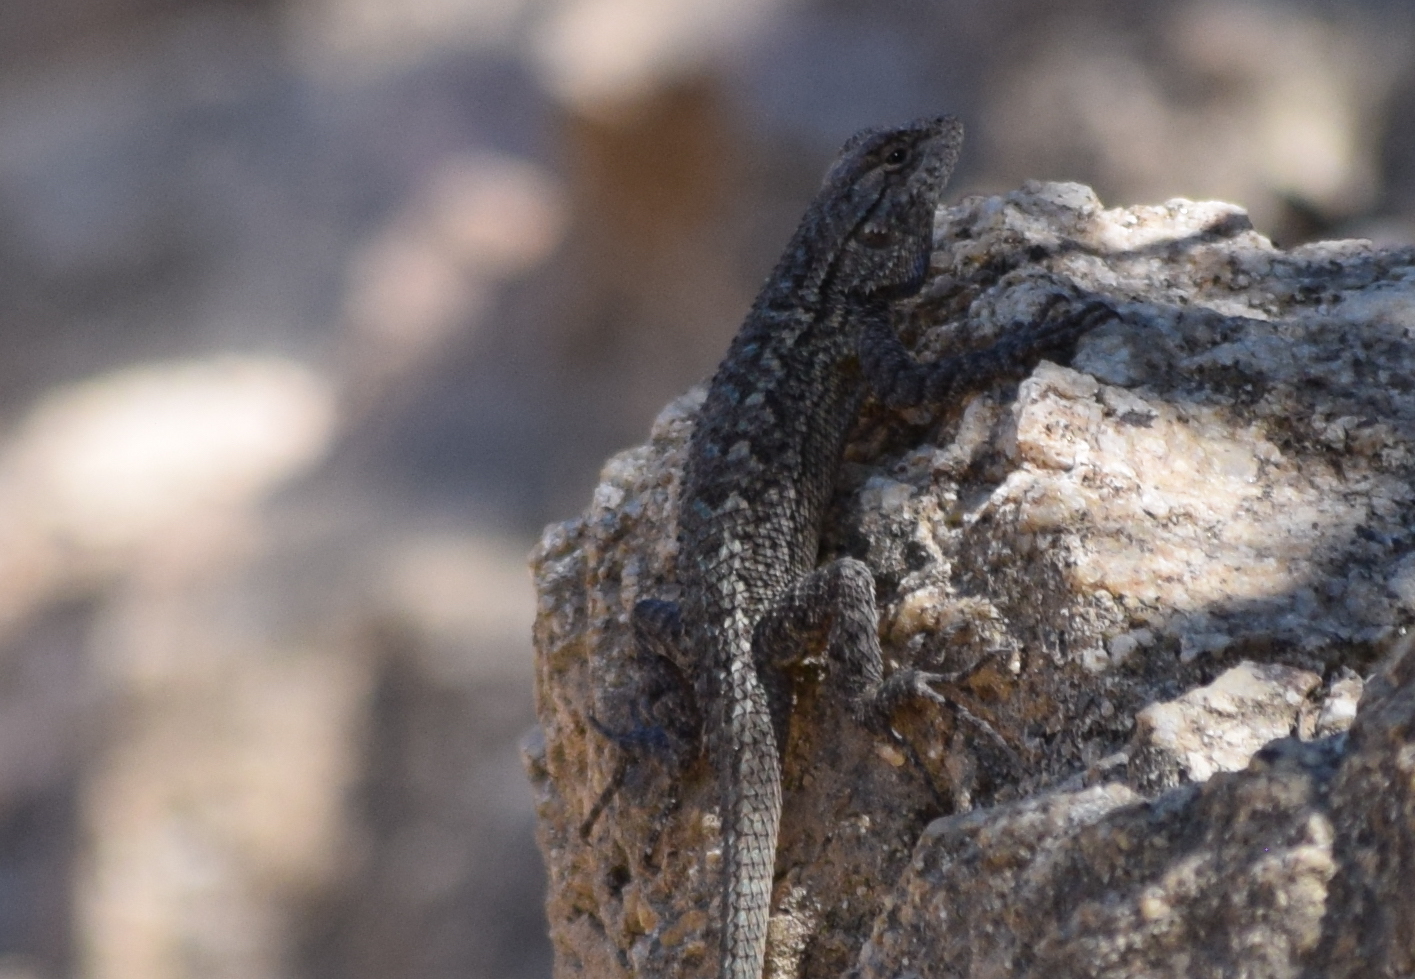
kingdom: Animalia
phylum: Chordata
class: Squamata
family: Phrynosomatidae
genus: Sceloporus
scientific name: Sceloporus occidentalis
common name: Western fence lizard
